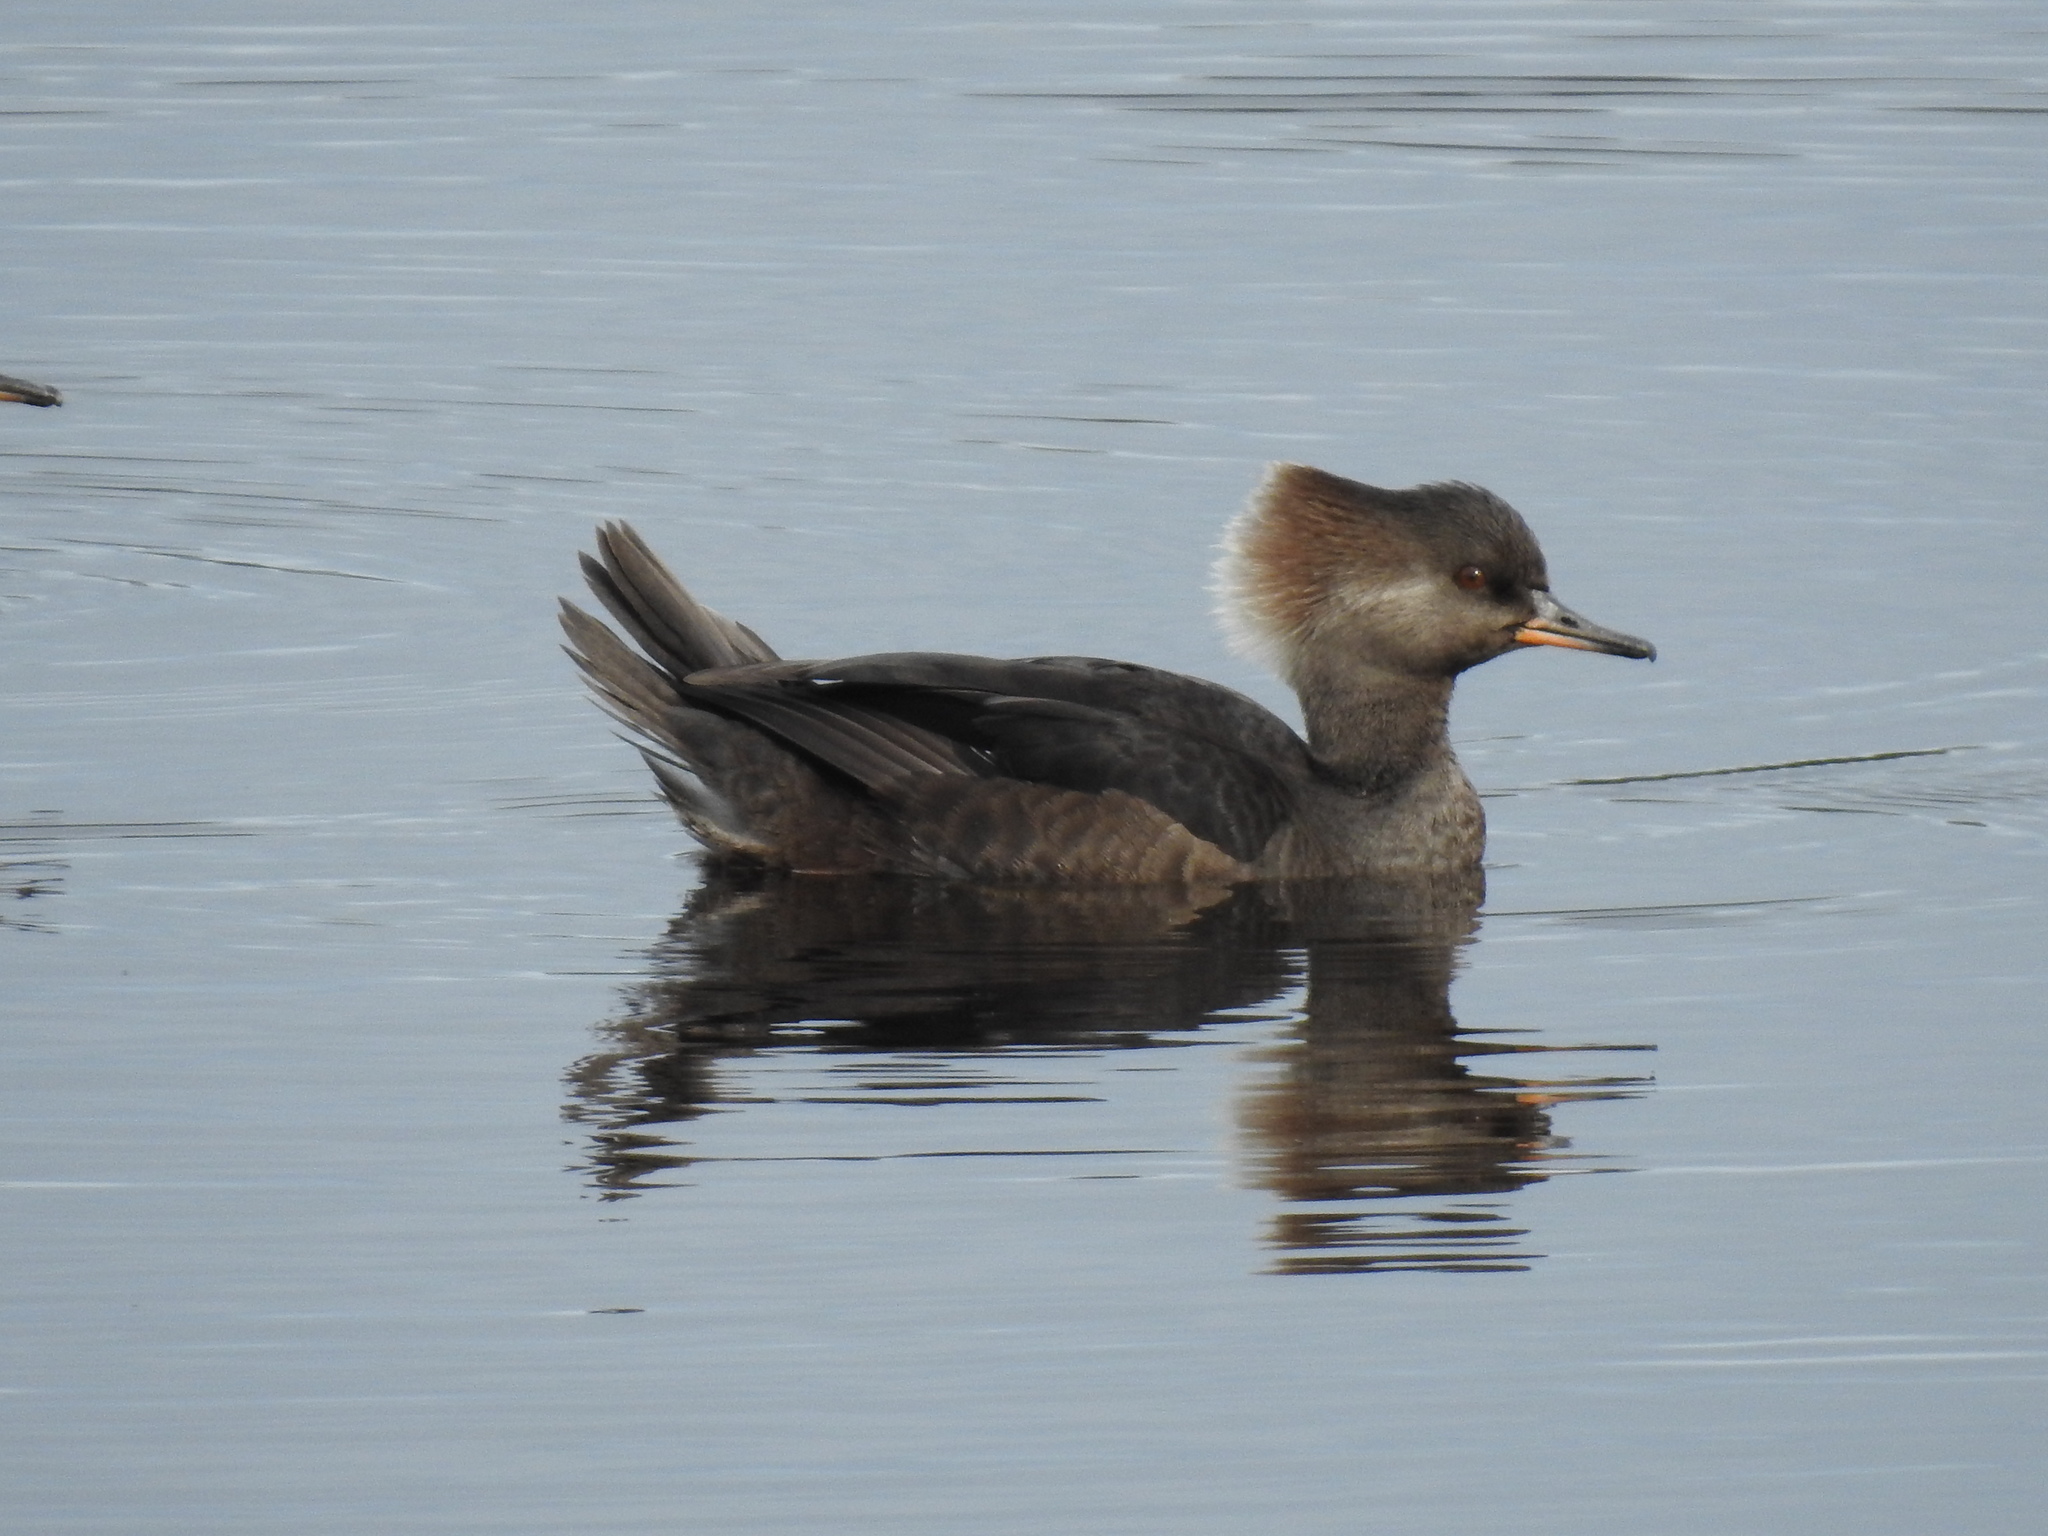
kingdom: Animalia
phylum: Chordata
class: Aves
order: Anseriformes
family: Anatidae
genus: Lophodytes
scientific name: Lophodytes cucullatus
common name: Hooded merganser
